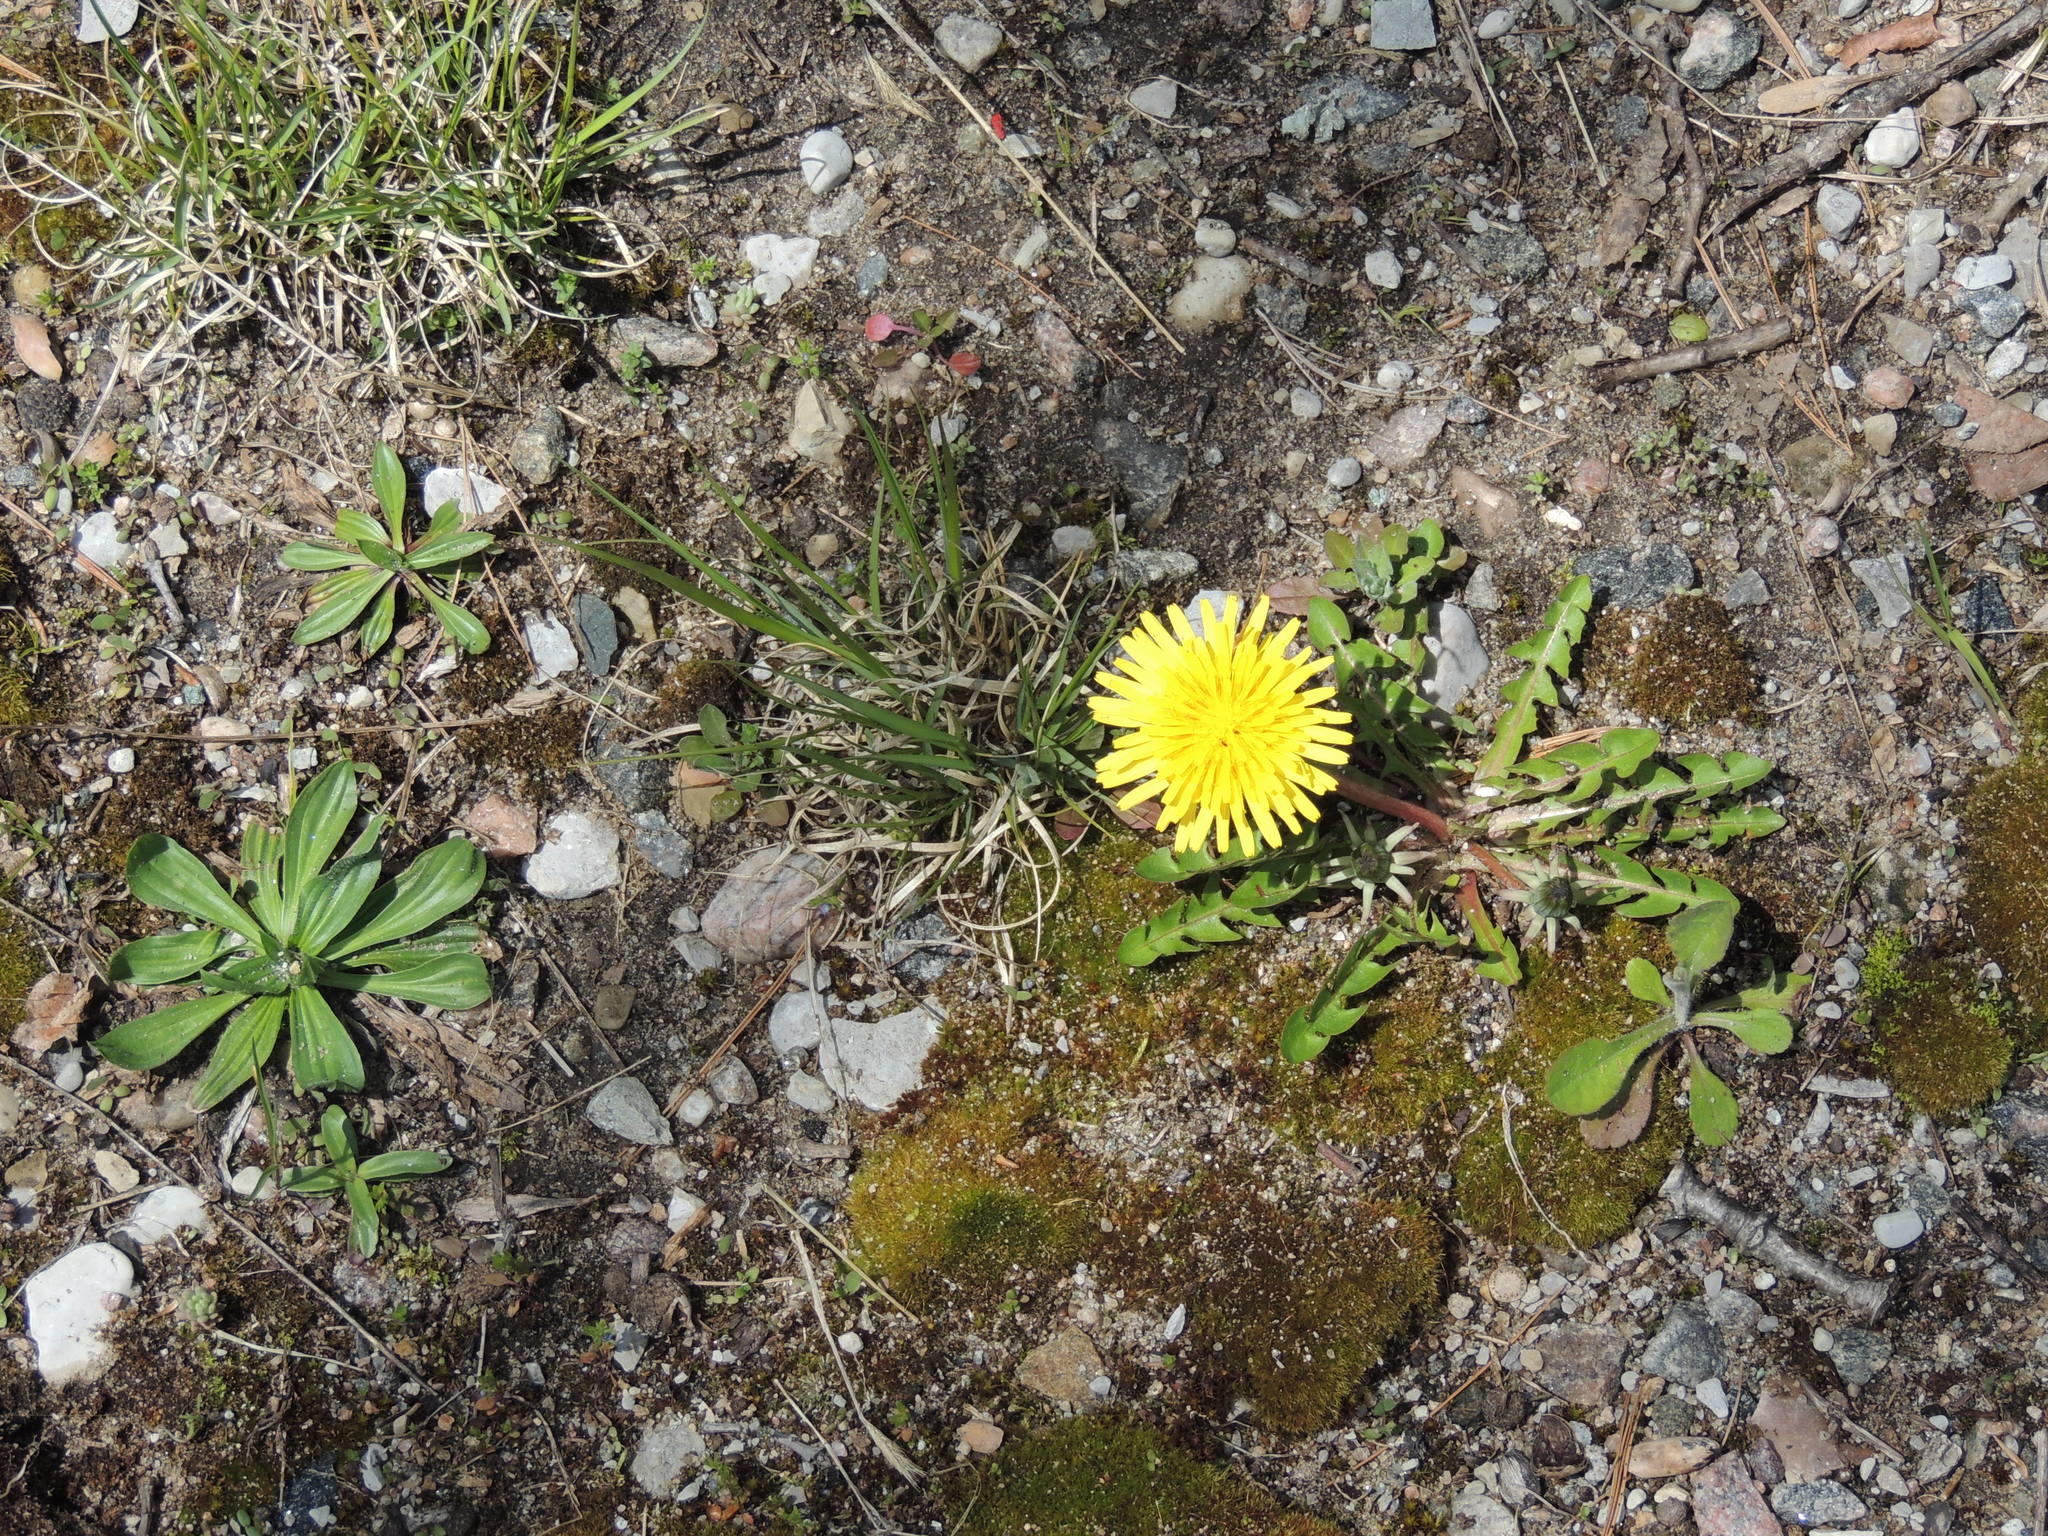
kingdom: Plantae
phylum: Tracheophyta
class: Magnoliopsida
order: Asterales
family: Asteraceae
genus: Taraxacum
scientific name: Taraxacum officinale
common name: Common dandelion
